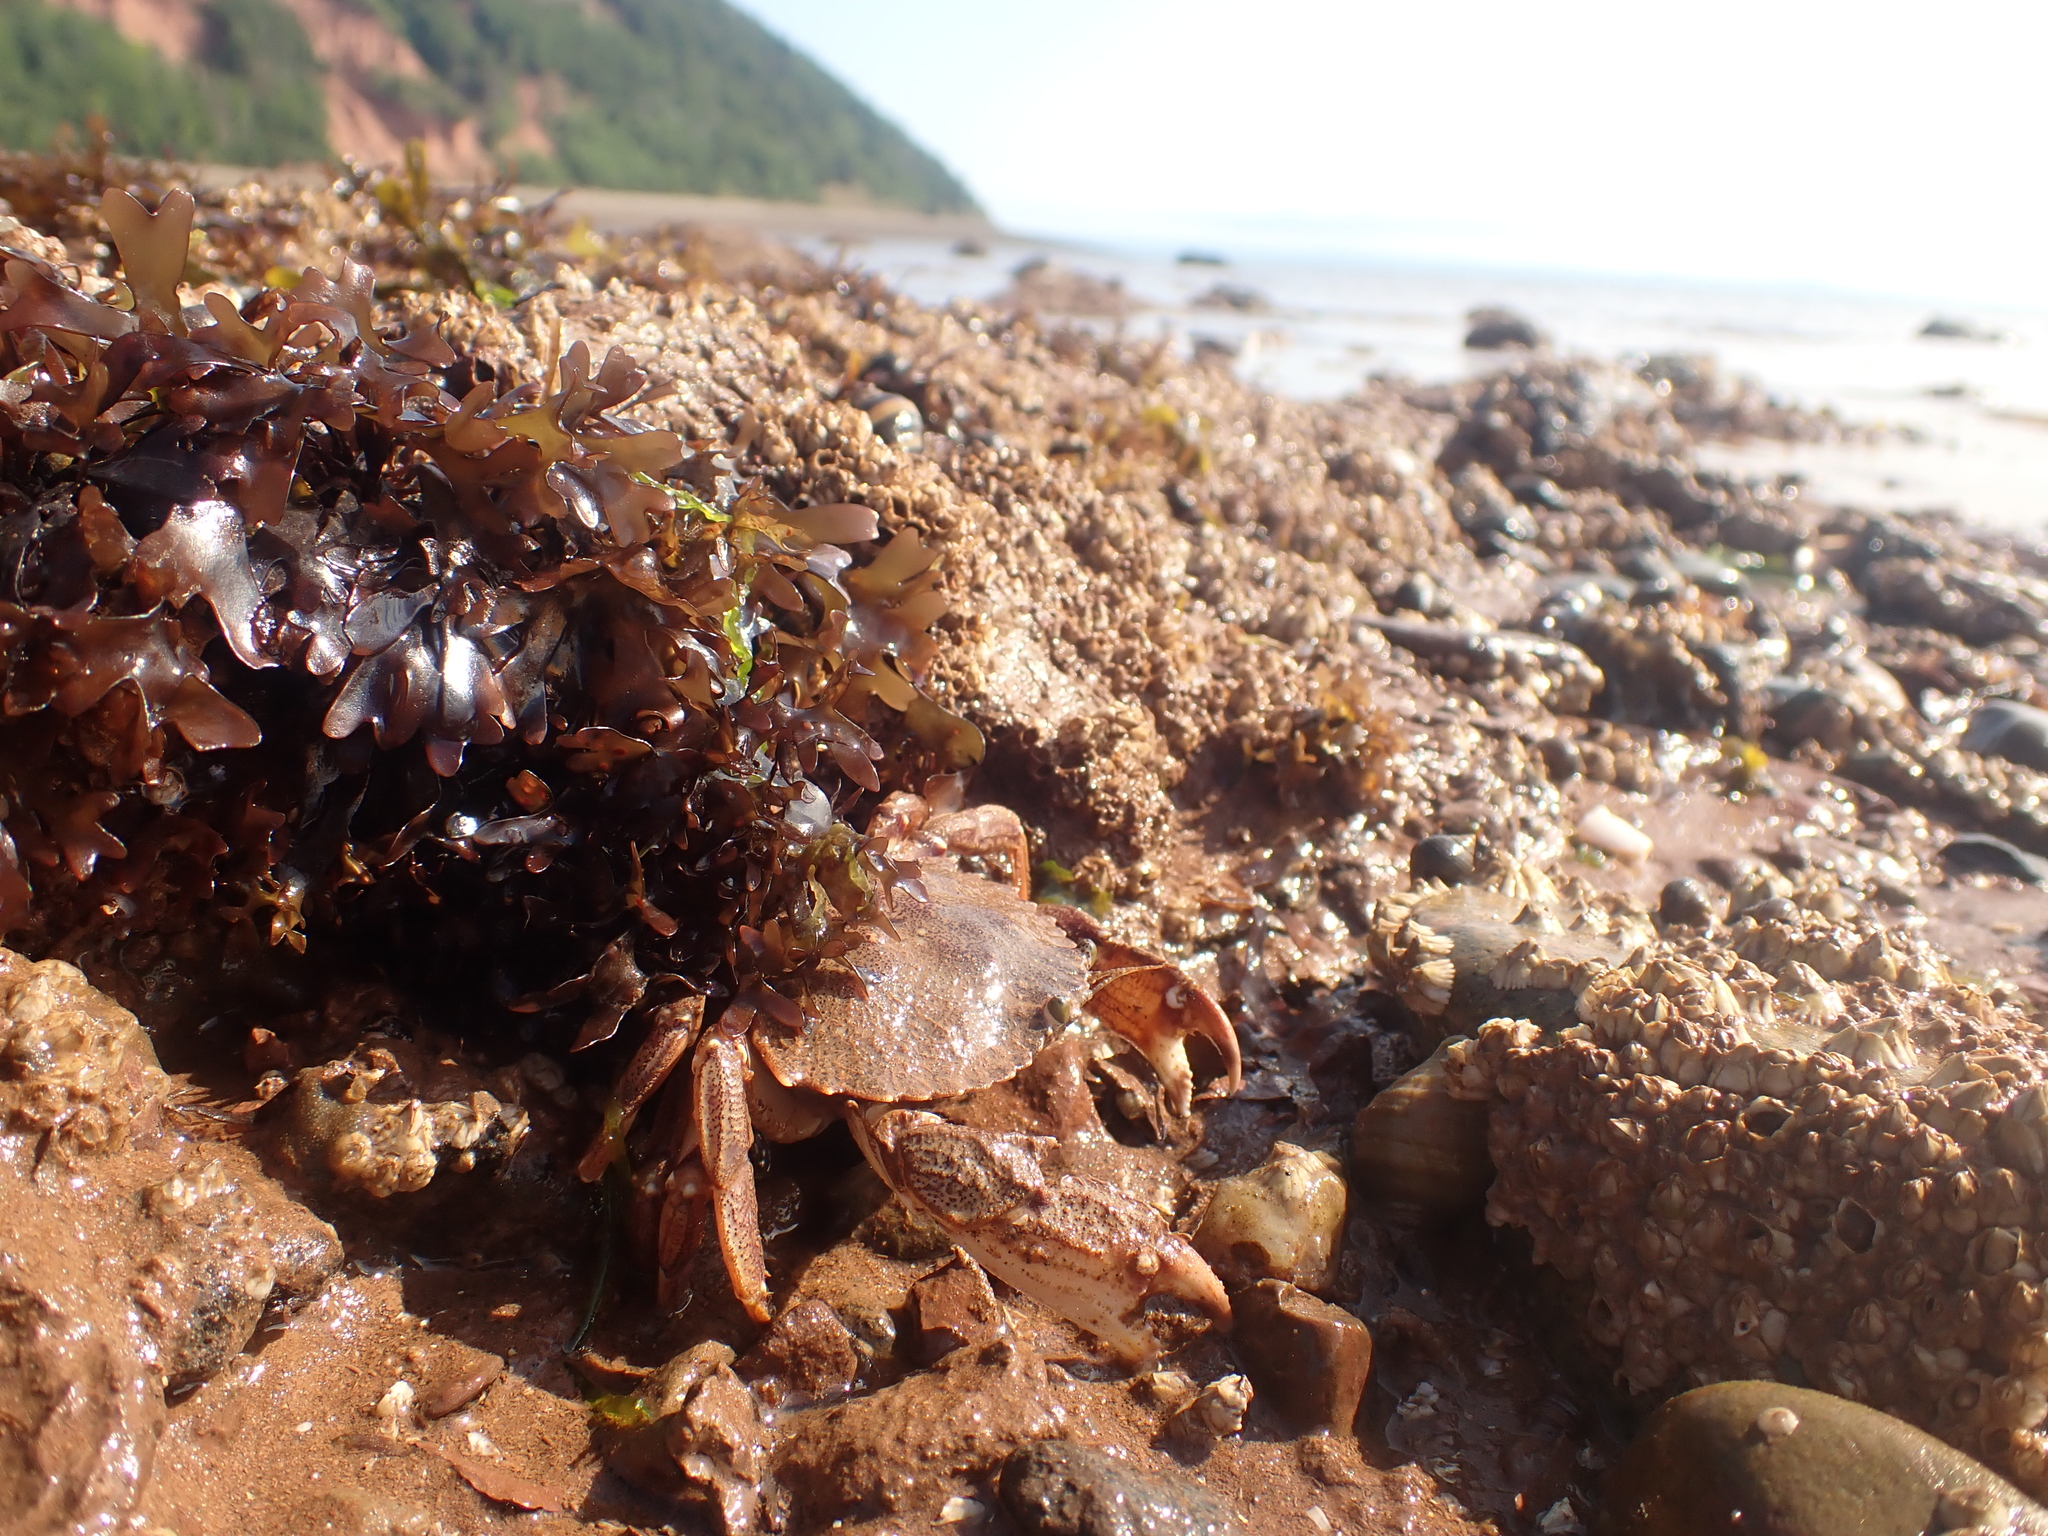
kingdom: Animalia
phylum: Arthropoda
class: Malacostraca
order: Decapoda
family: Cancridae
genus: Cancer
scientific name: Cancer irroratus
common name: Atlantic rock crab
